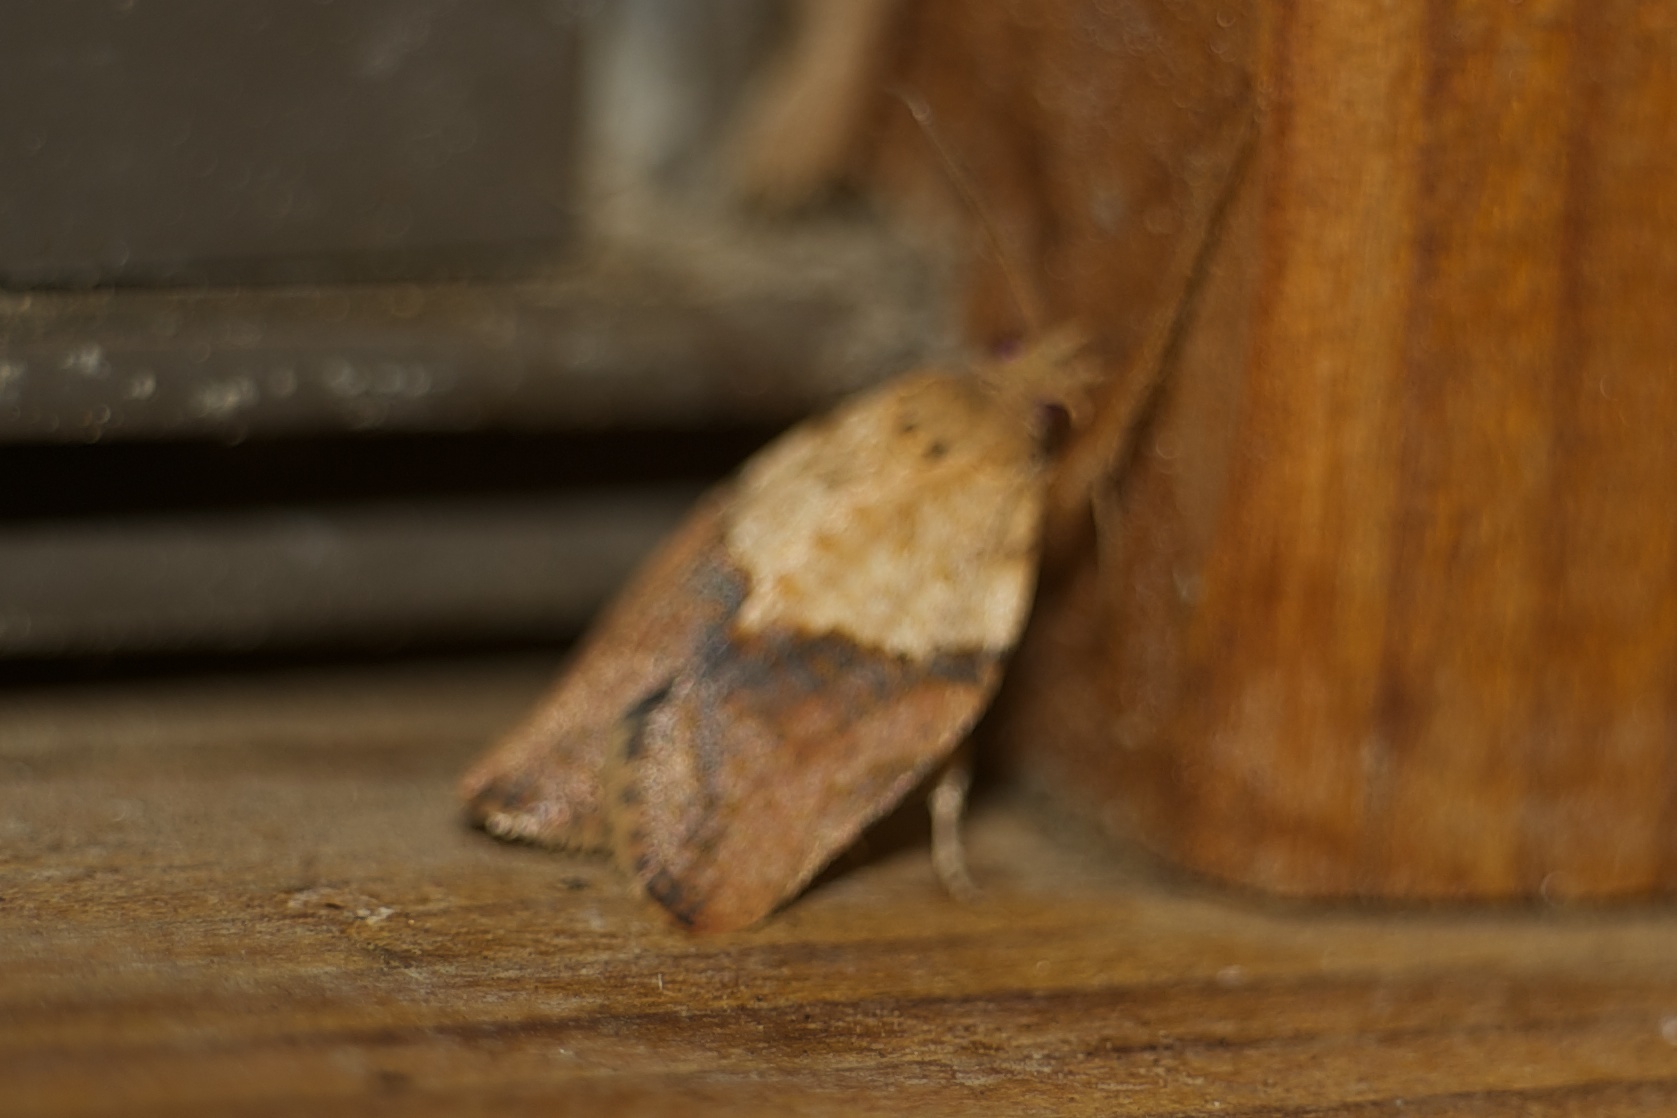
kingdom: Animalia
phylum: Arthropoda
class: Insecta
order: Lepidoptera
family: Tortricidae
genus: Epiphyas
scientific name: Epiphyas postvittana
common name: Light brown apple moth
